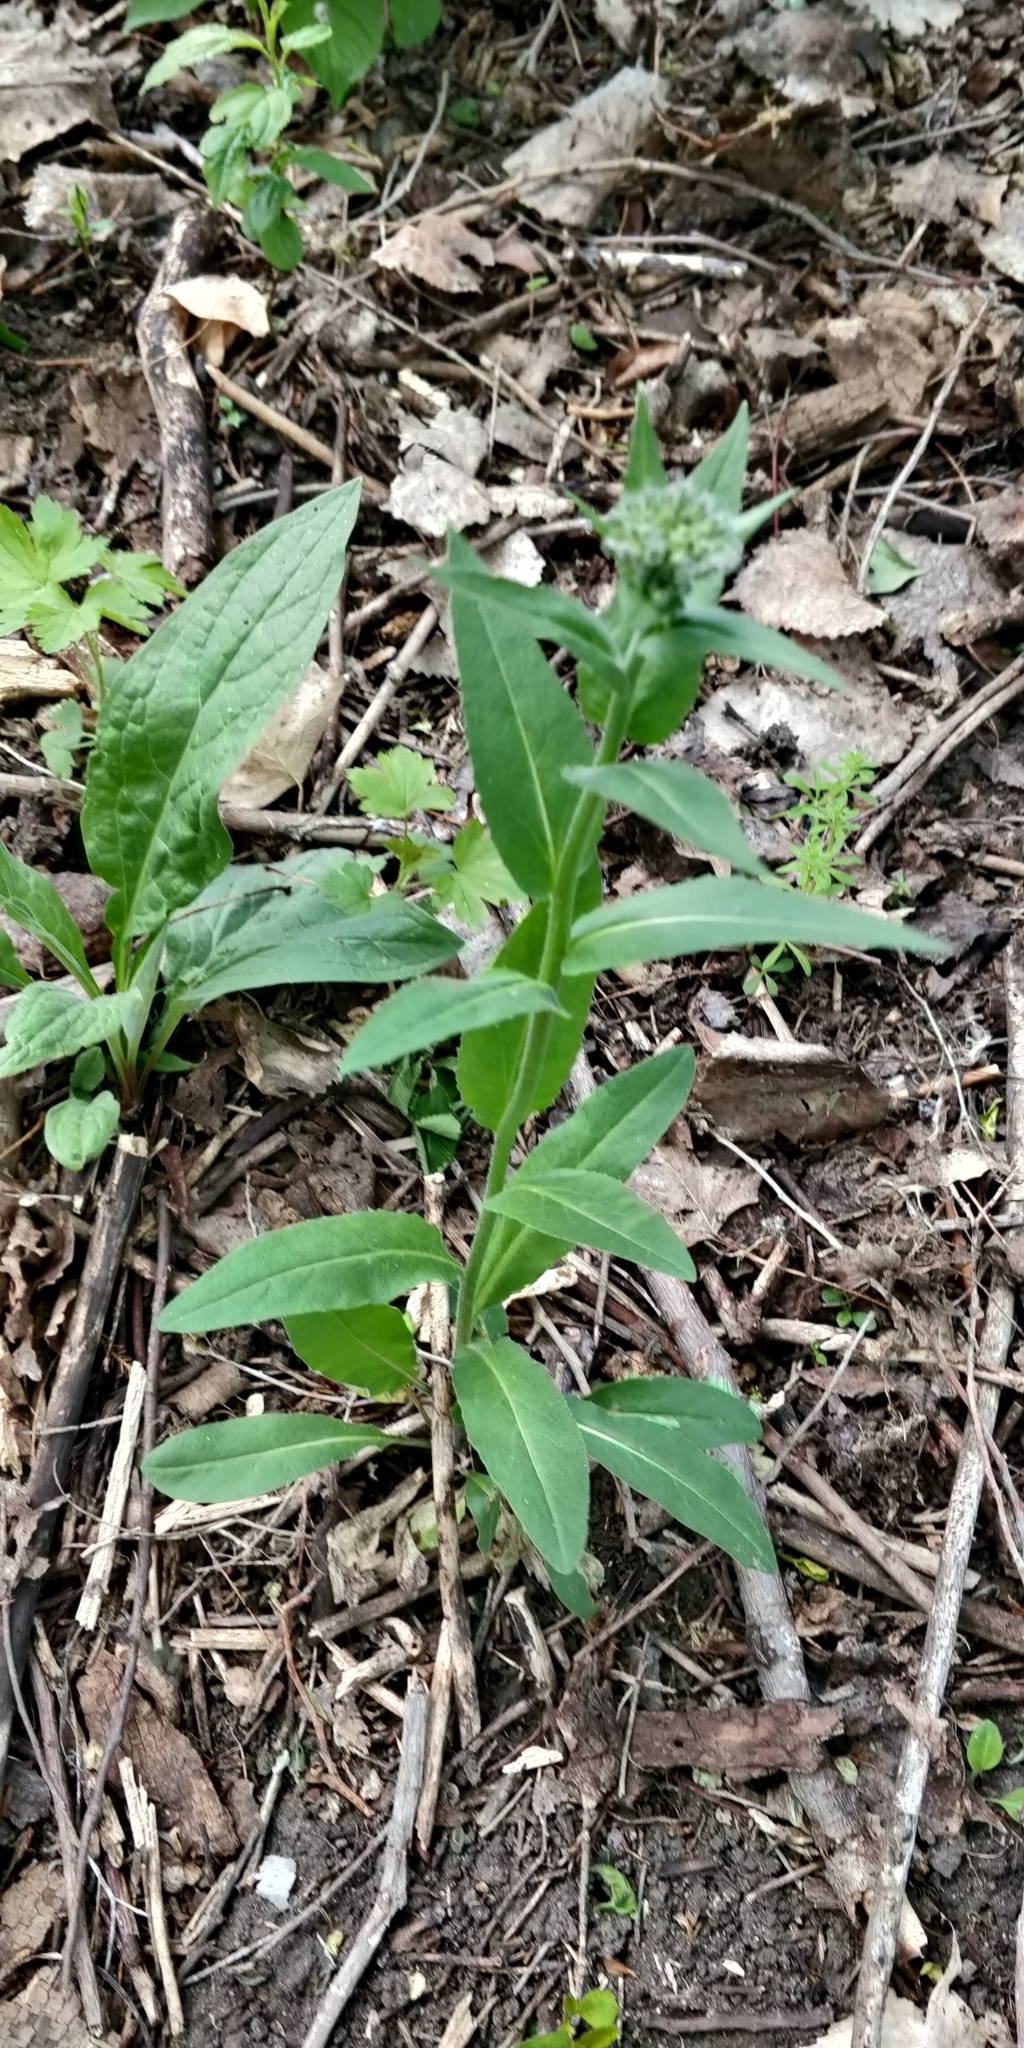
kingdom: Plantae
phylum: Tracheophyta
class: Magnoliopsida
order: Brassicales
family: Brassicaceae
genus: Hesperis
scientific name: Hesperis matronalis
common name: Dame's-violet
